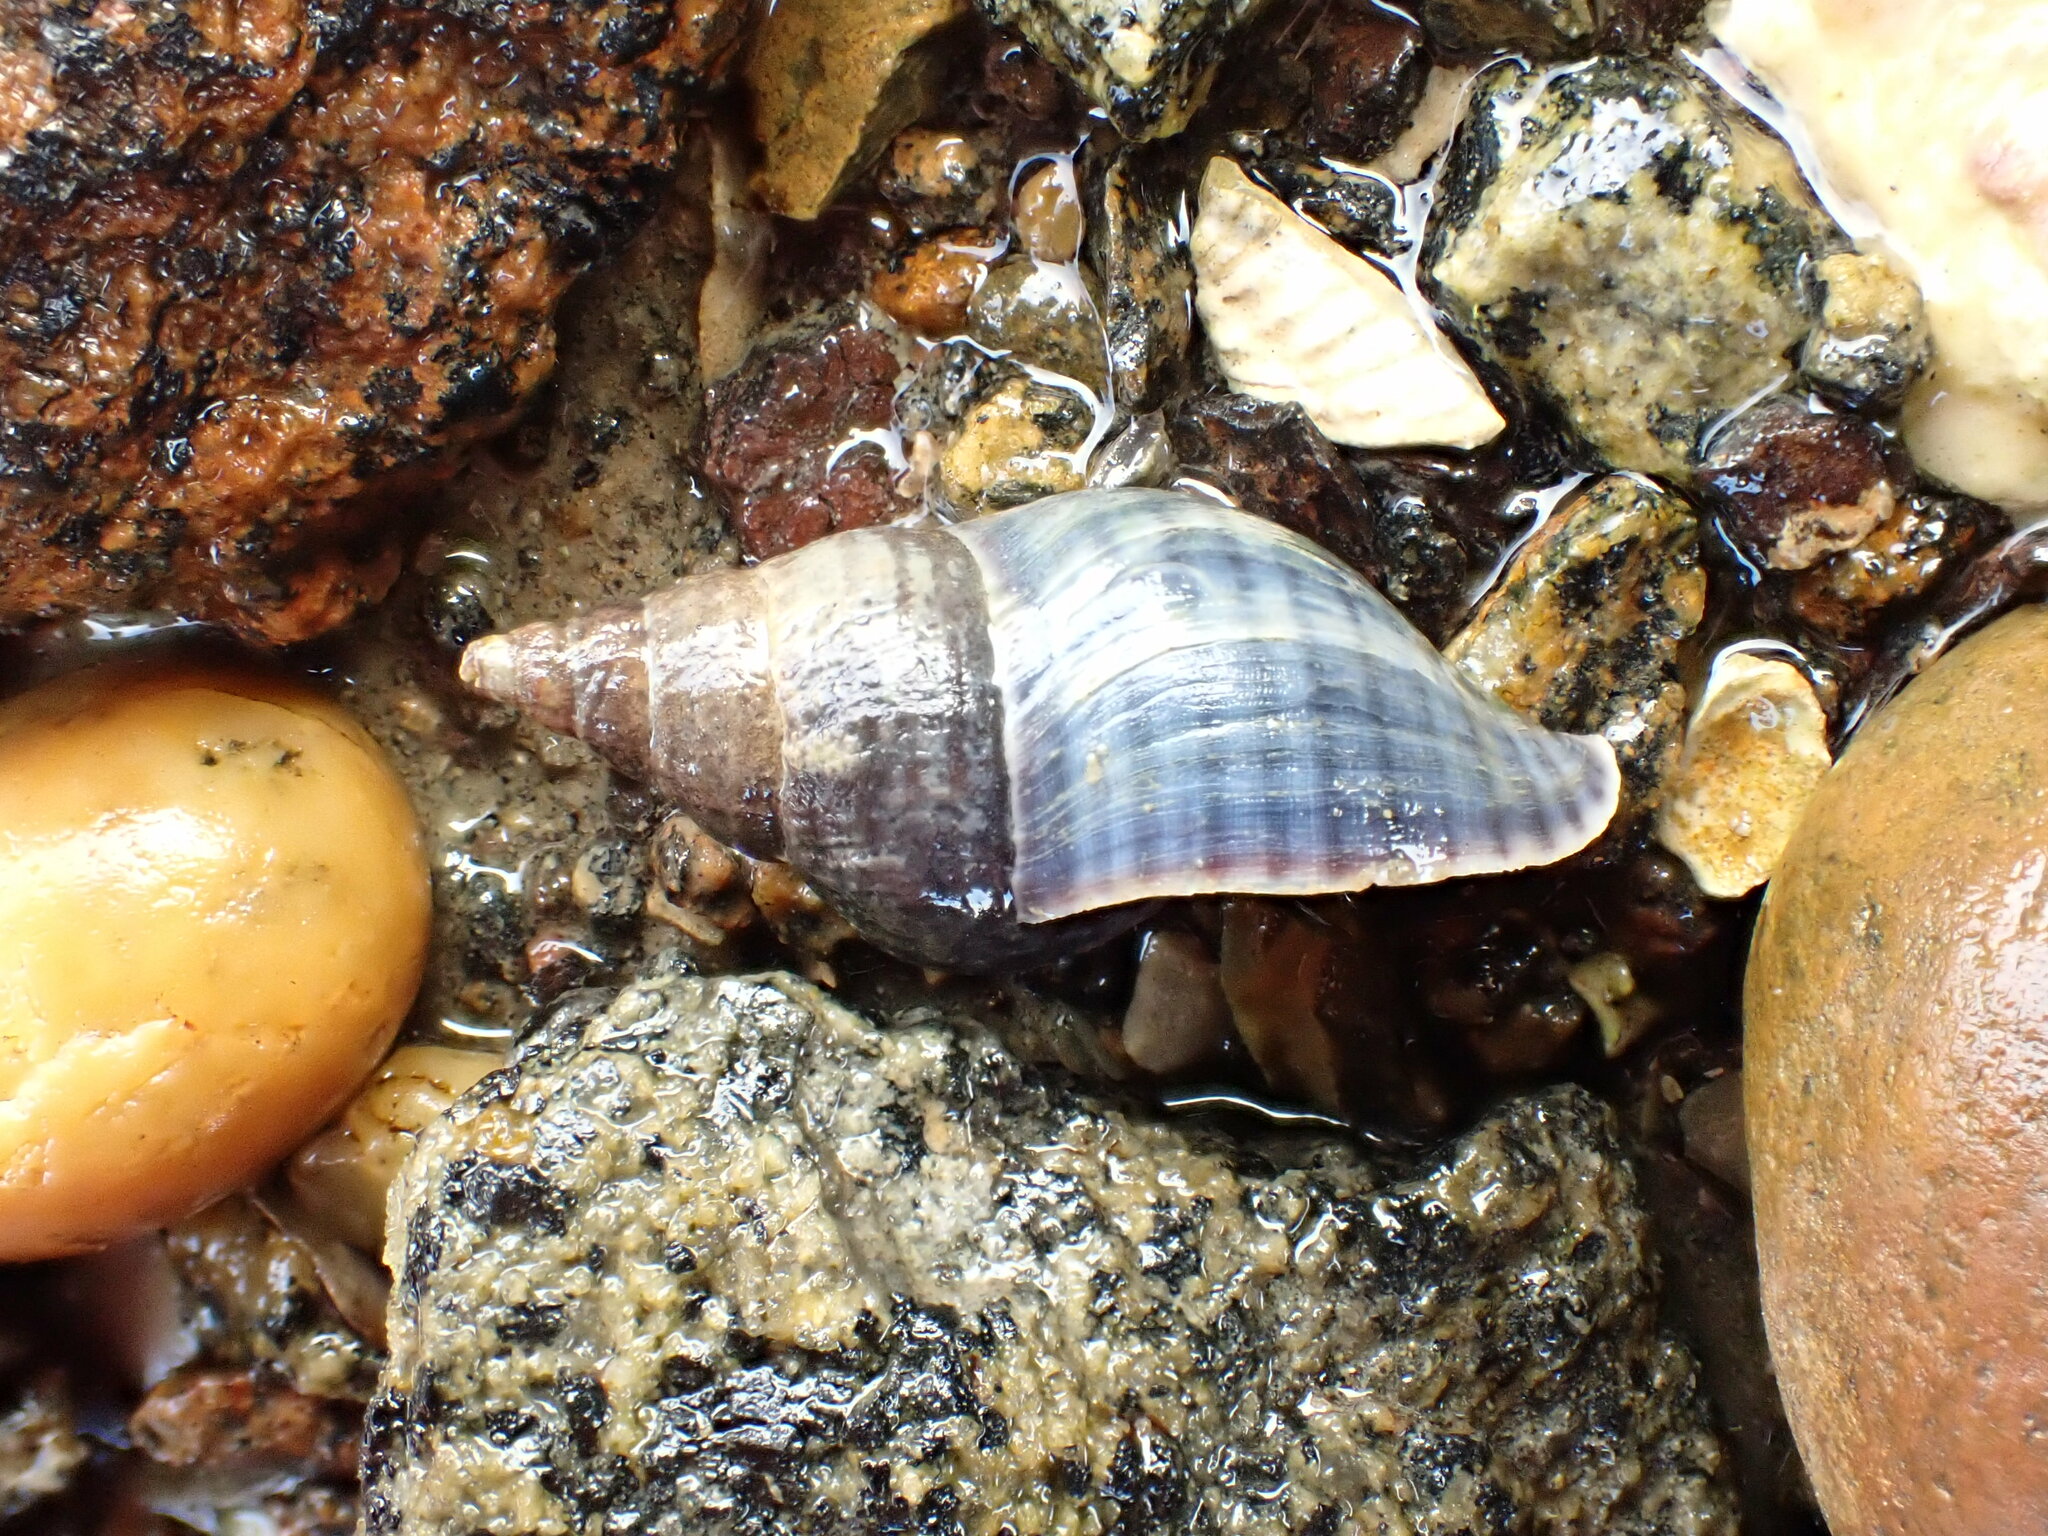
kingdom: Animalia
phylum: Mollusca
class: Gastropoda
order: Neogastropoda
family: Tudiclidae
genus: Buccinulum
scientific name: Buccinulum littorinoides
